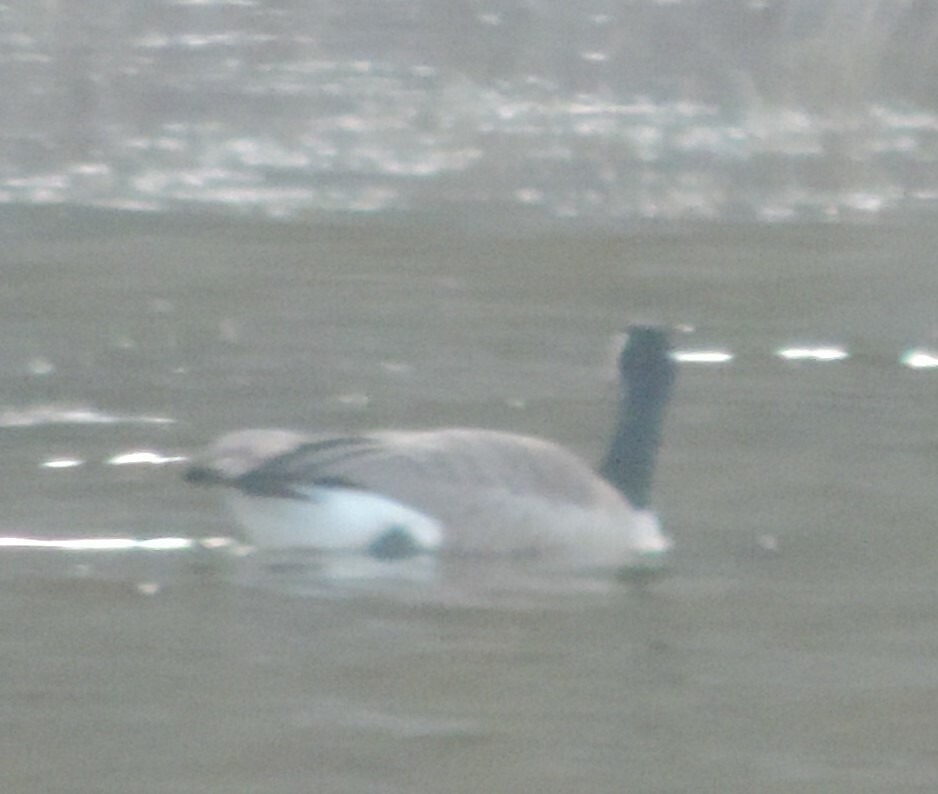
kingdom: Animalia
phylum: Chordata
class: Aves
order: Anseriformes
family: Anatidae
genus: Branta
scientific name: Branta canadensis
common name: Canada goose
